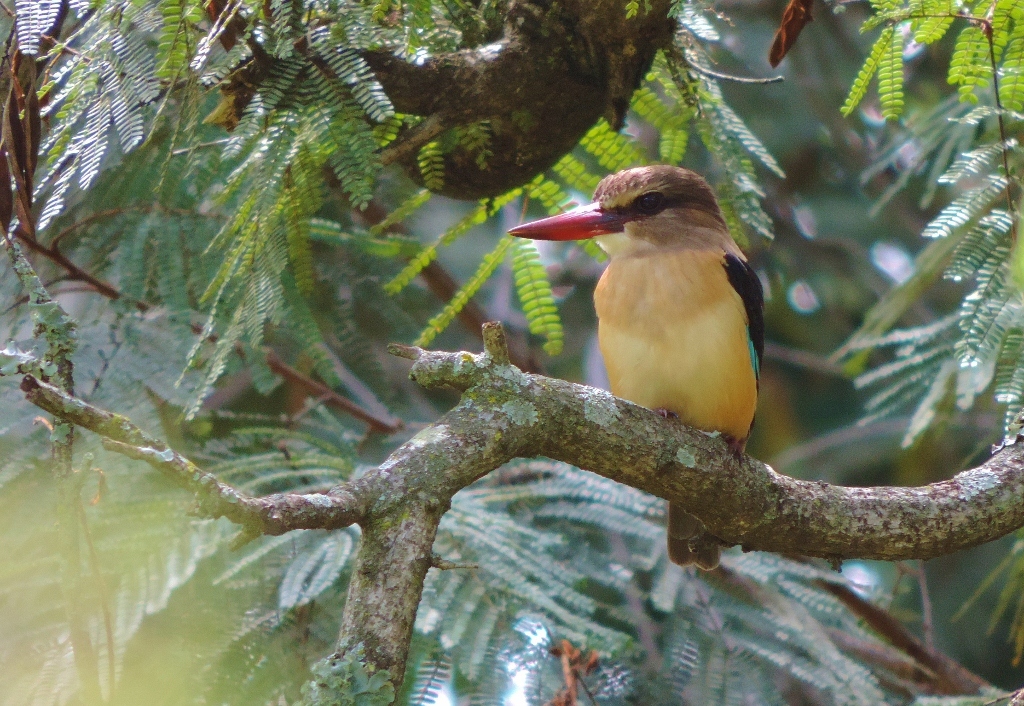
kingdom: Animalia
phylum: Chordata
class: Aves
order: Coraciiformes
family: Alcedinidae
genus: Halcyon
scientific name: Halcyon albiventris
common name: Brown-hooded kingfisher
